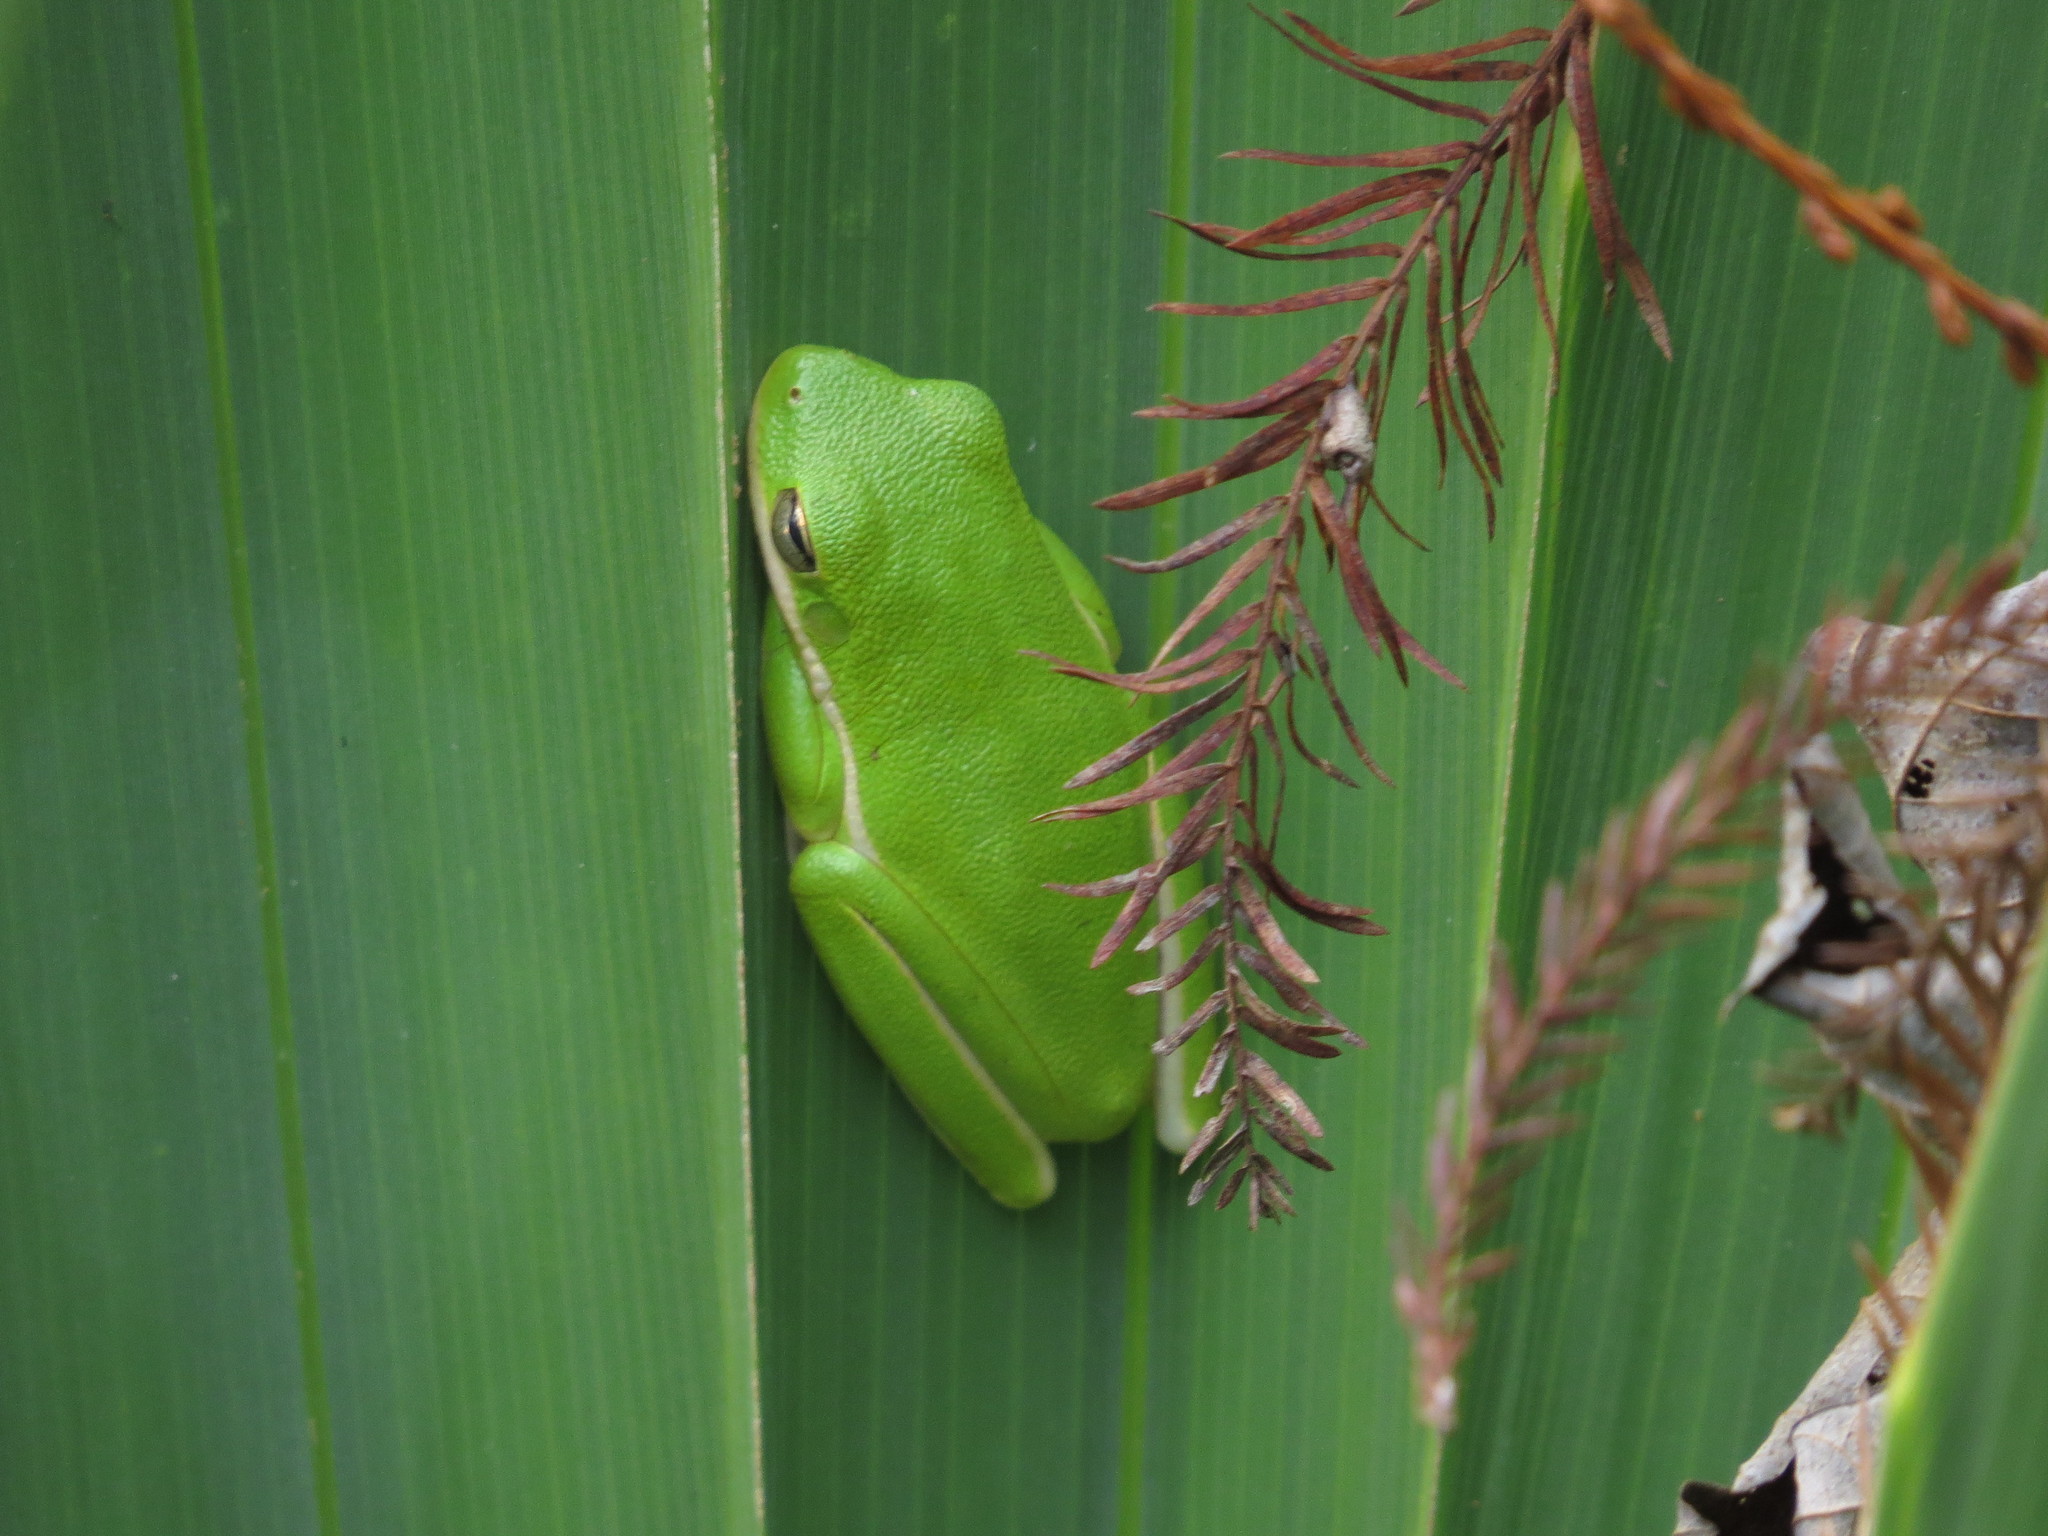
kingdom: Animalia
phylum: Chordata
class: Amphibia
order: Anura
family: Hylidae
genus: Dryophytes
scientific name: Dryophytes cinereus
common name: Green treefrog
